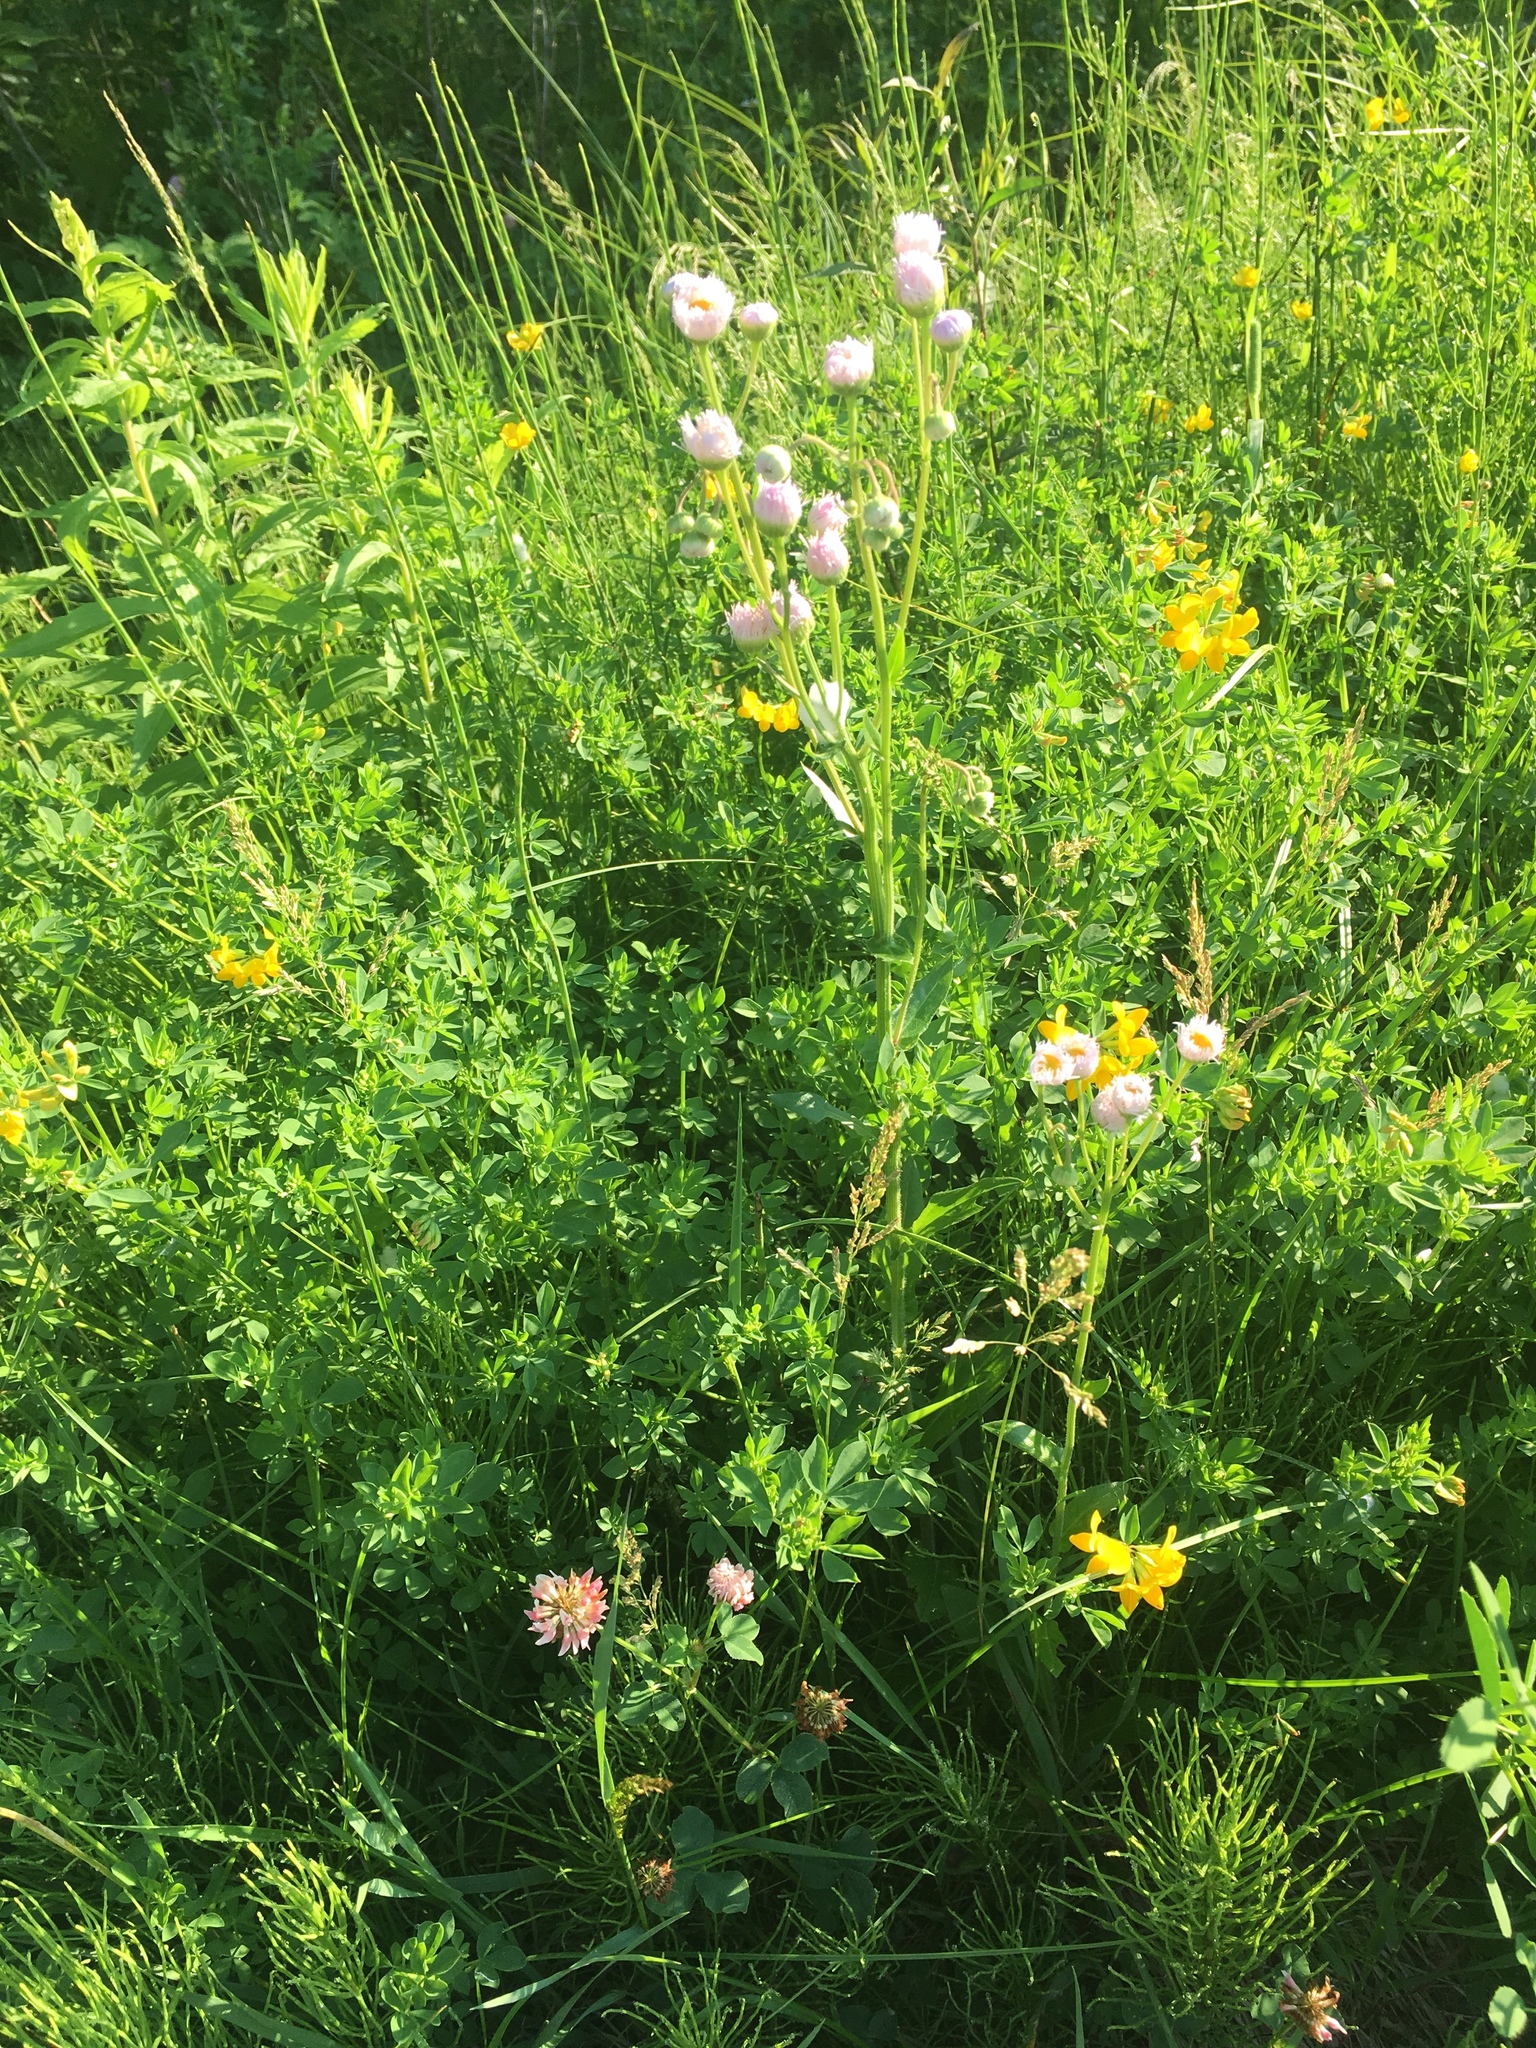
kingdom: Plantae
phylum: Tracheophyta
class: Magnoliopsida
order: Asterales
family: Asteraceae
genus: Erigeron
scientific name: Erigeron philadelphicus
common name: Robin's-plantain
